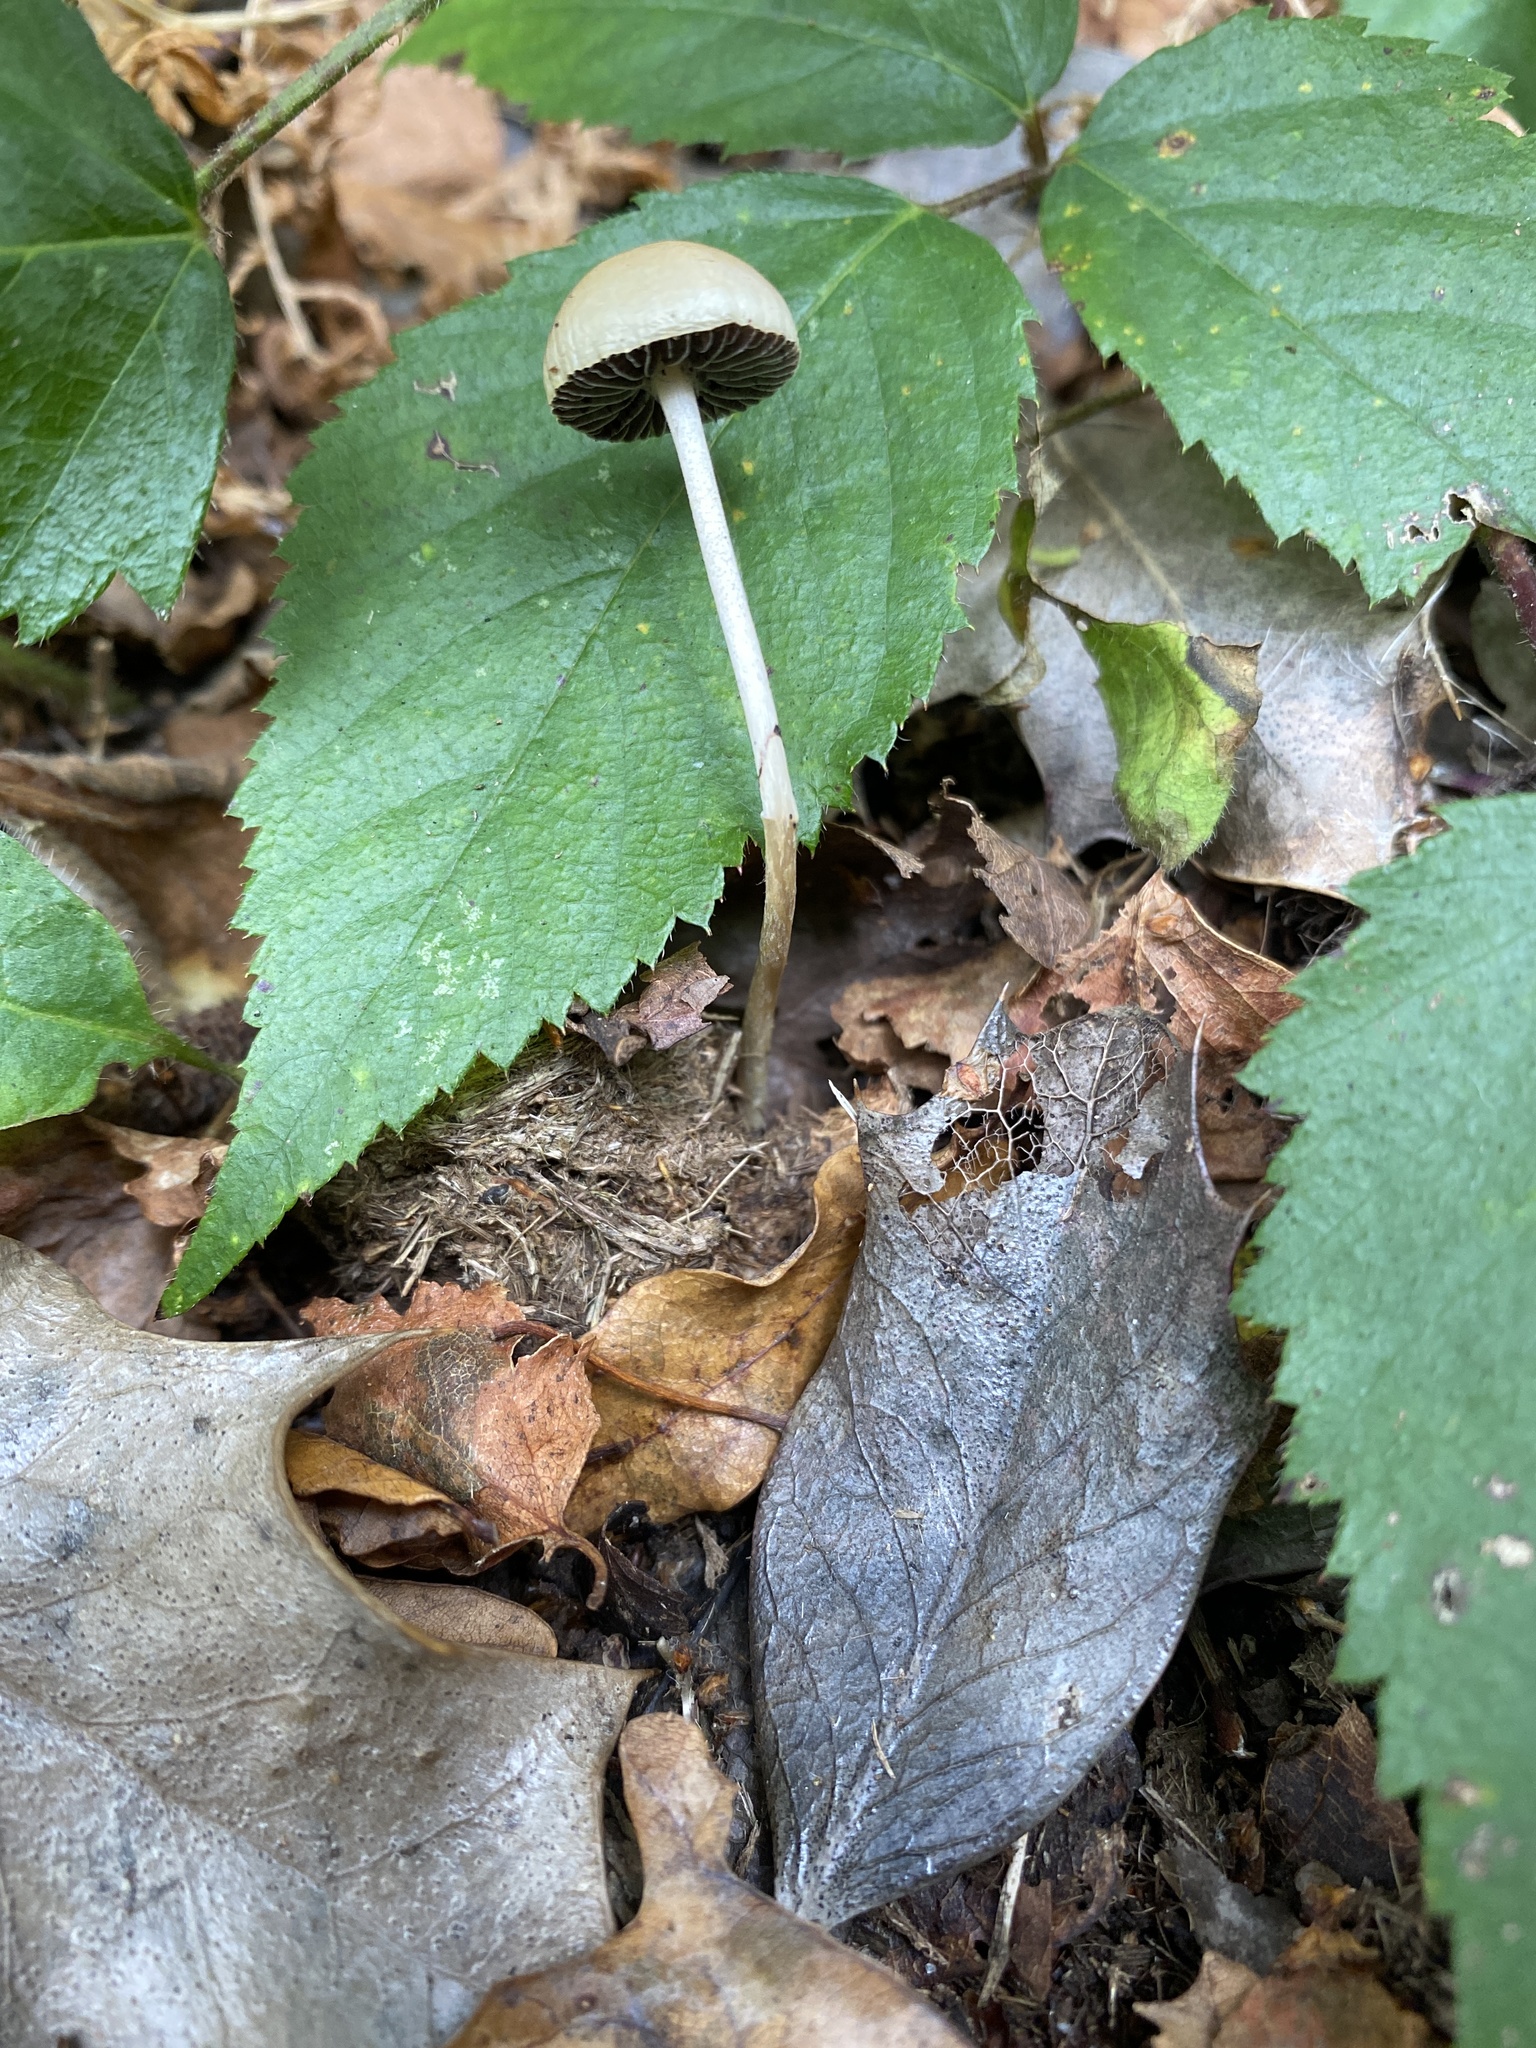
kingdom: Fungi
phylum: Basidiomycota
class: Agaricomycetes
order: Agaricales
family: Strophariaceae
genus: Protostropharia
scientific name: Protostropharia semiglobata
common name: Dung roundhead
